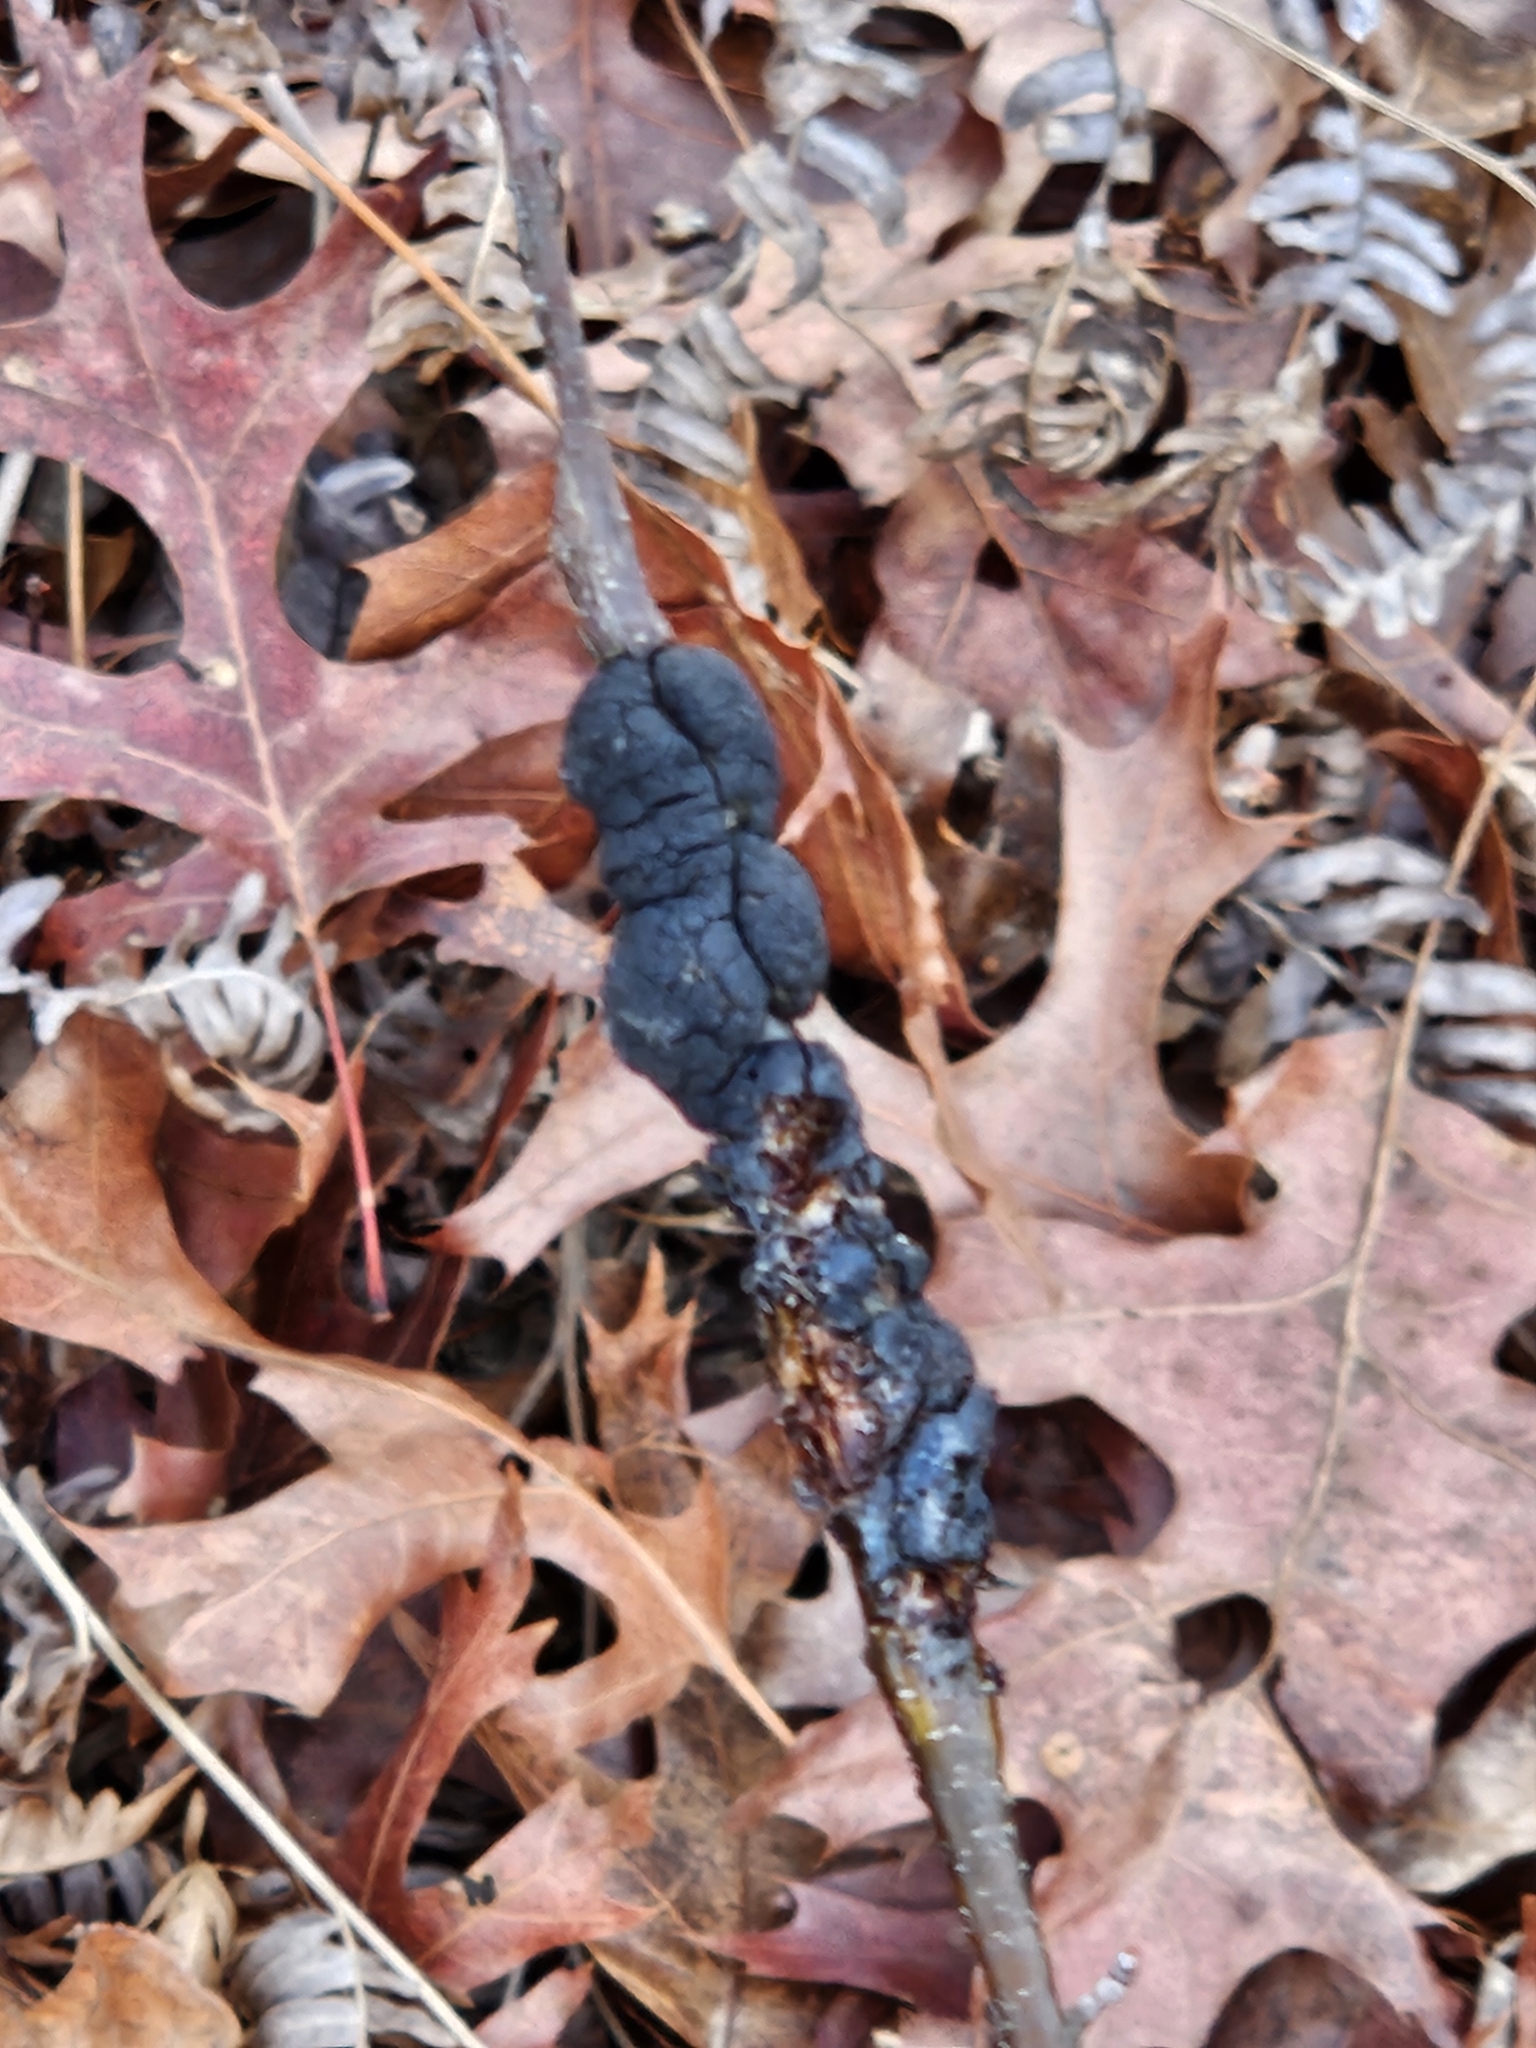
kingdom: Fungi
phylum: Ascomycota
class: Dothideomycetes
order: Venturiales
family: Venturiaceae
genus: Apiosporina
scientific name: Apiosporina morbosa
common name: Black knot
